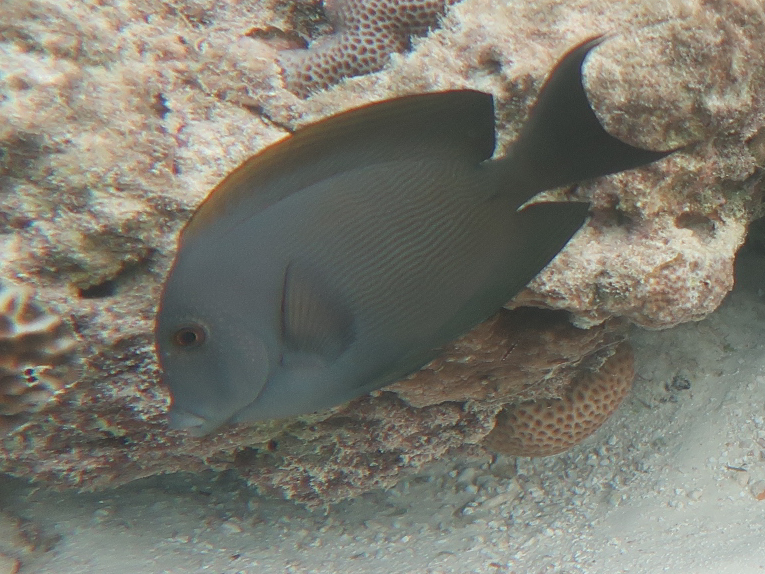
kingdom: Animalia
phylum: Chordata
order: Perciformes
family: Acanthuridae
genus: Ctenochaetus
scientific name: Ctenochaetus striatus
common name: Bristle-toothed surgeonfish
